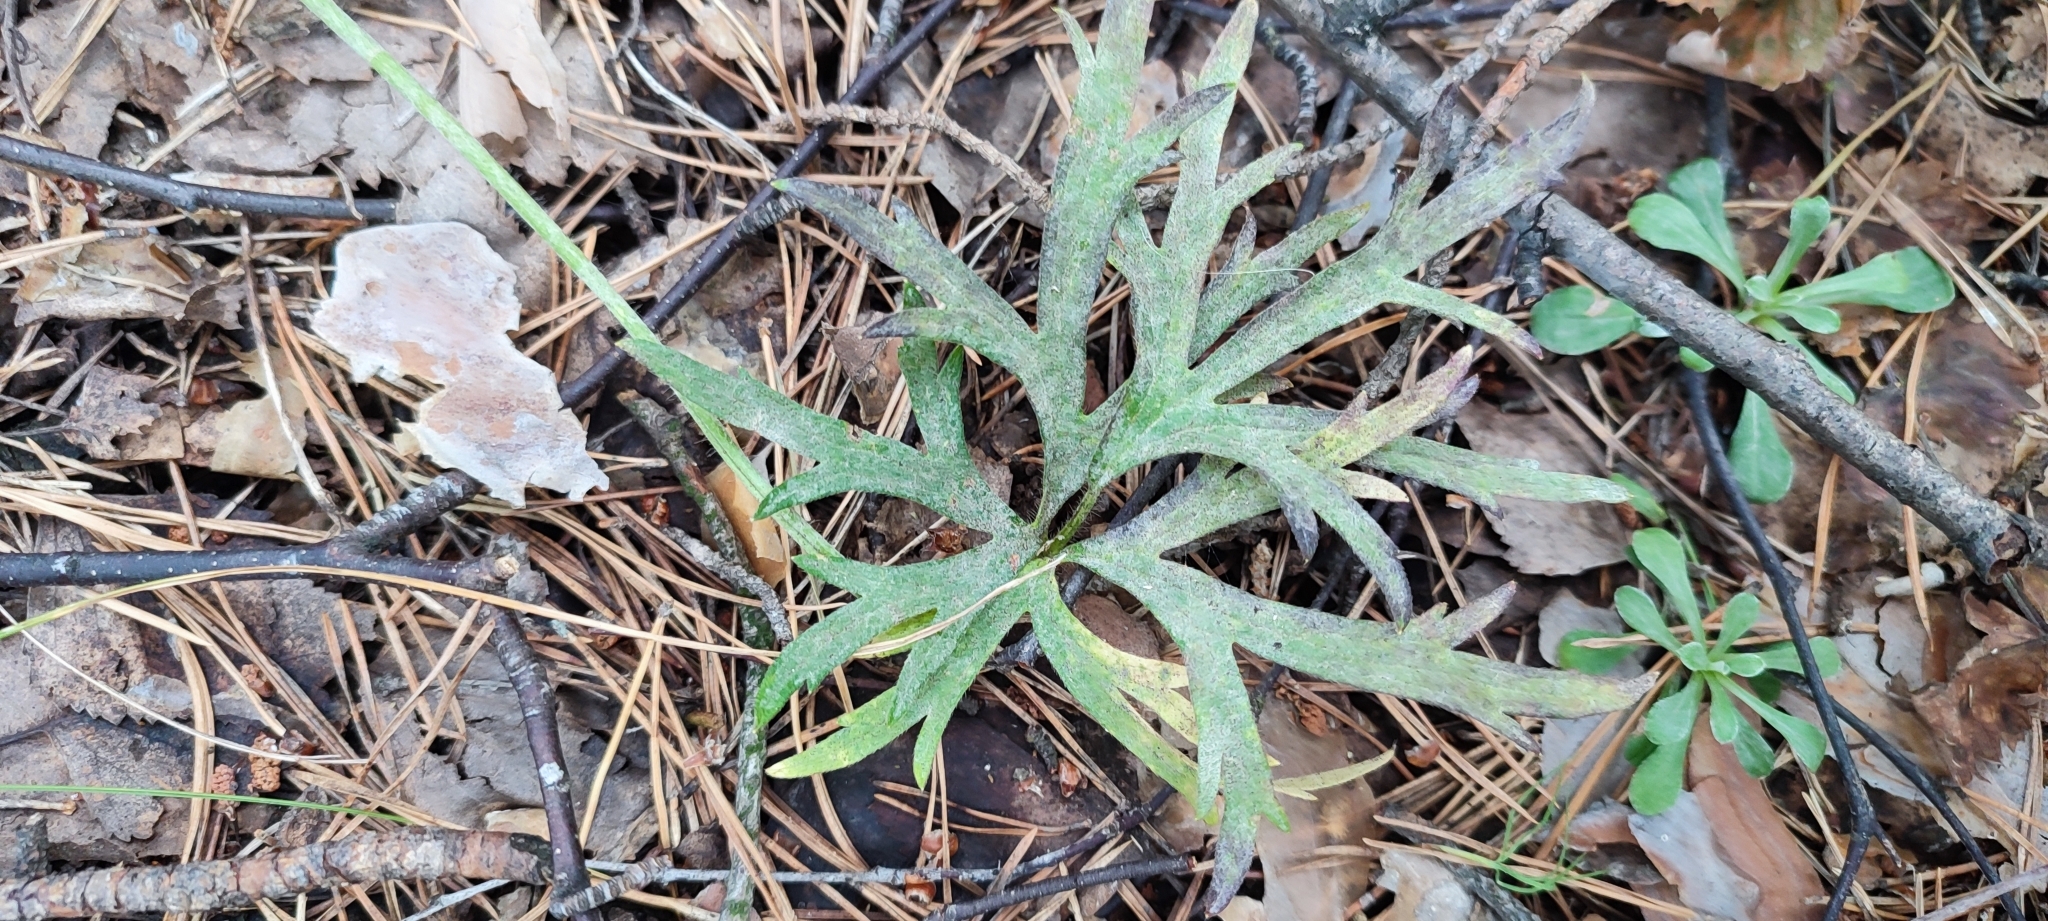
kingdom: Plantae
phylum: Tracheophyta
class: Magnoliopsida
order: Ranunculales
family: Ranunculaceae
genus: Pulsatilla
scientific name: Pulsatilla patens
